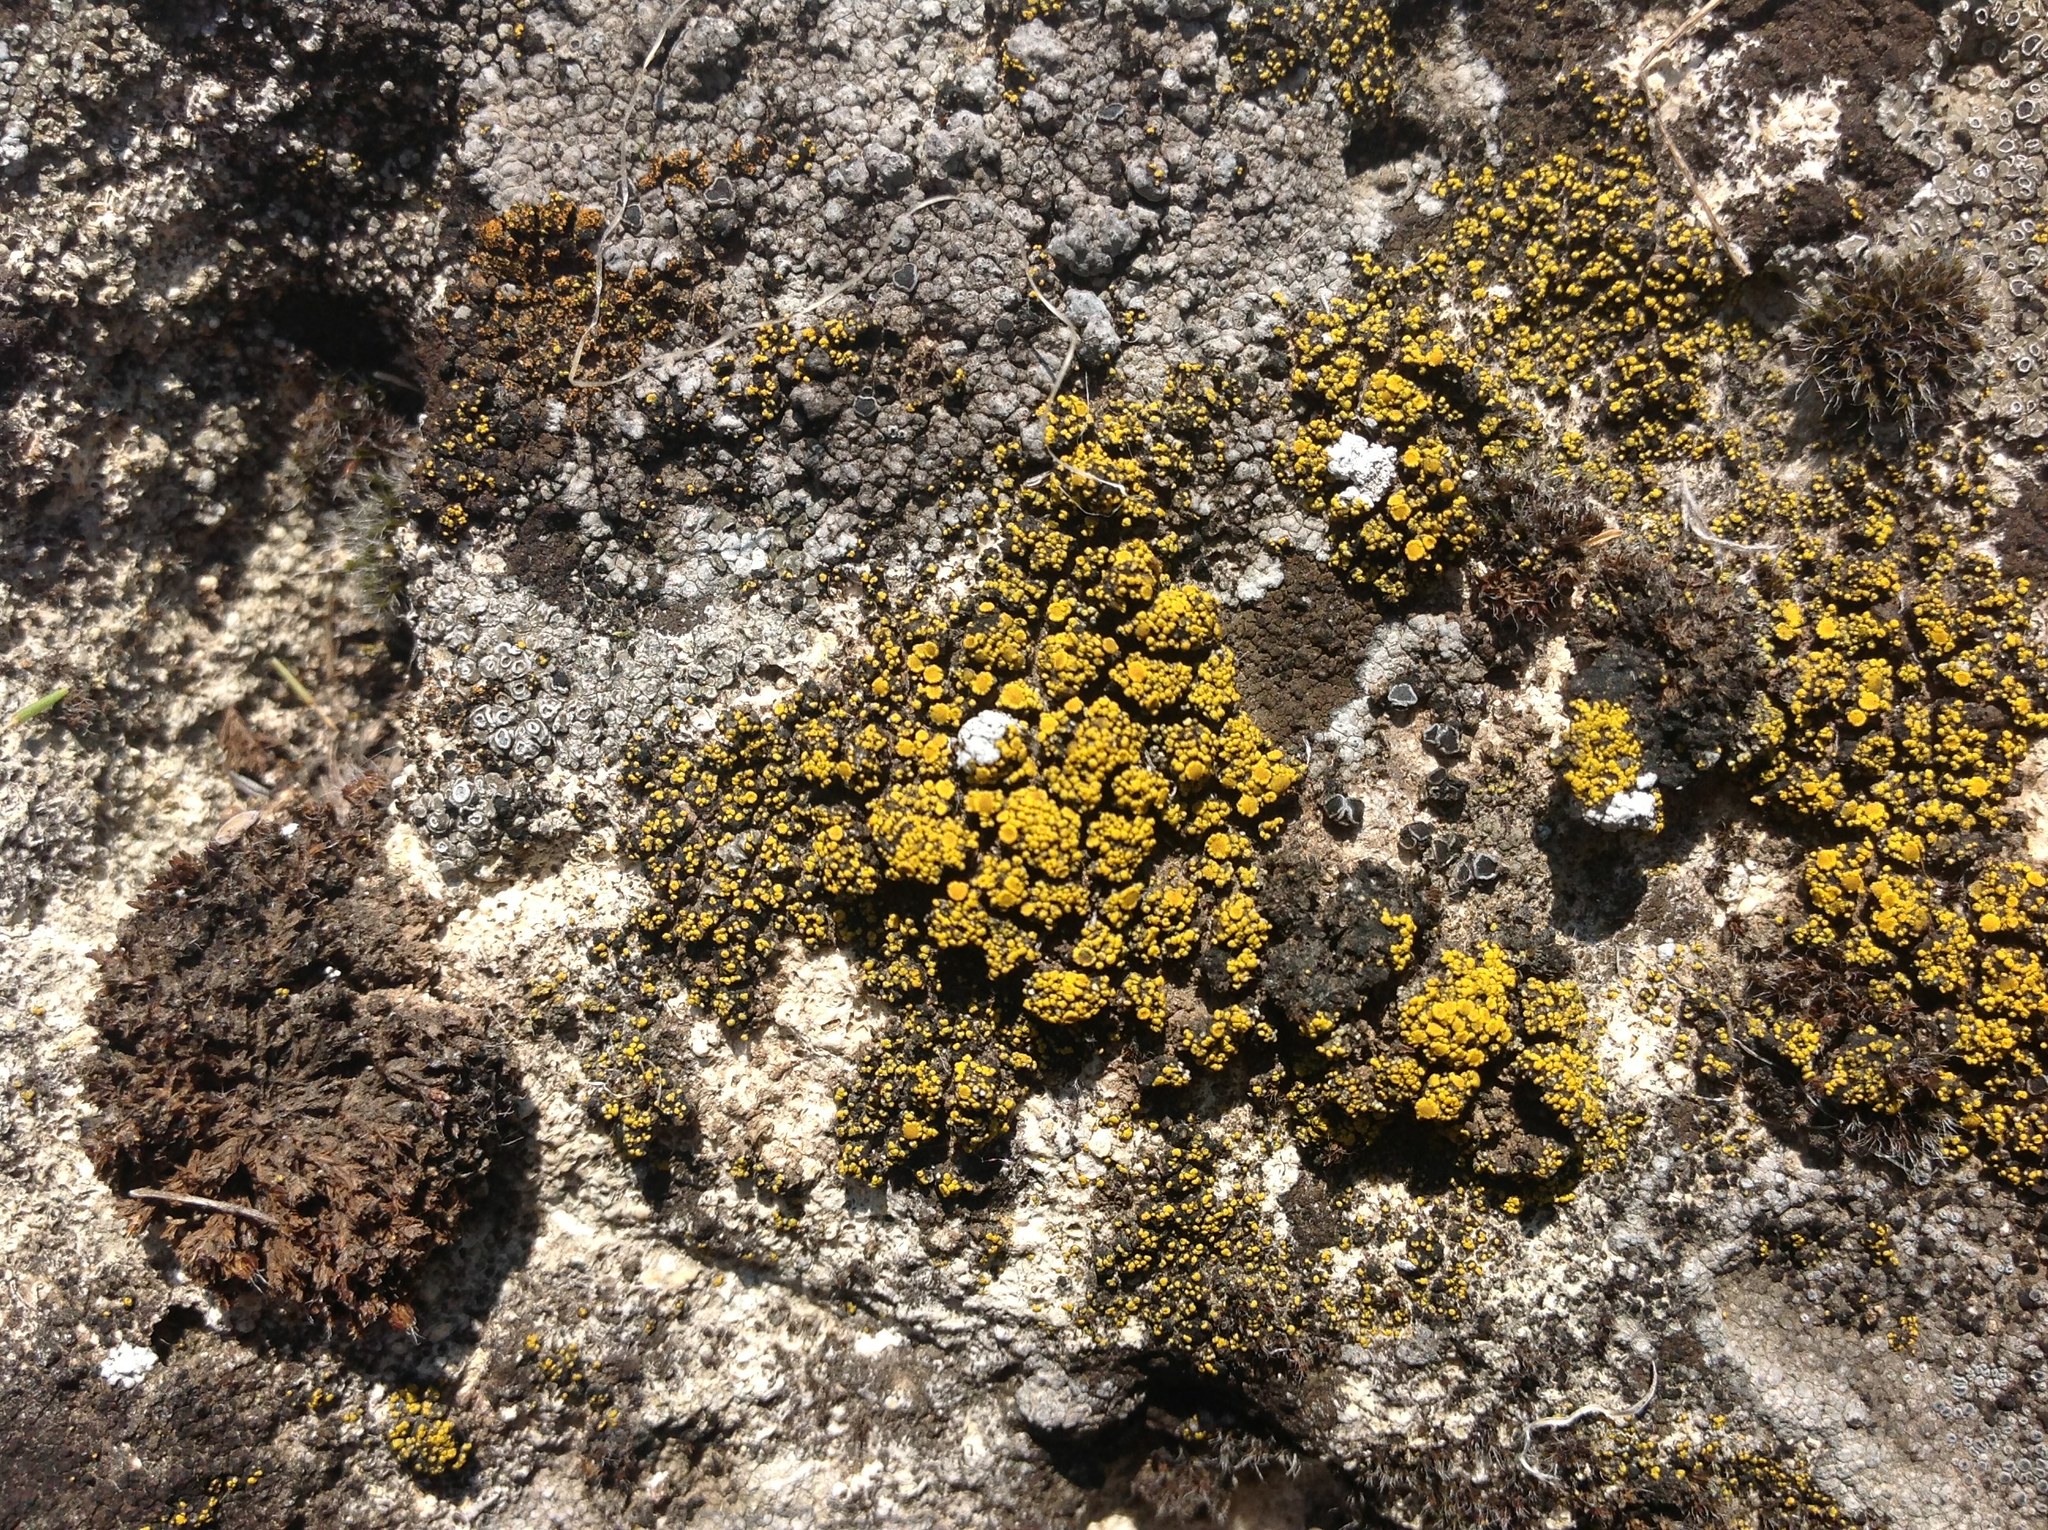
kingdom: Fungi
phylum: Ascomycota
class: Candelariomycetes
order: Candelariales
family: Candelariaceae
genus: Candelariella
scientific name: Candelariella rosulans
